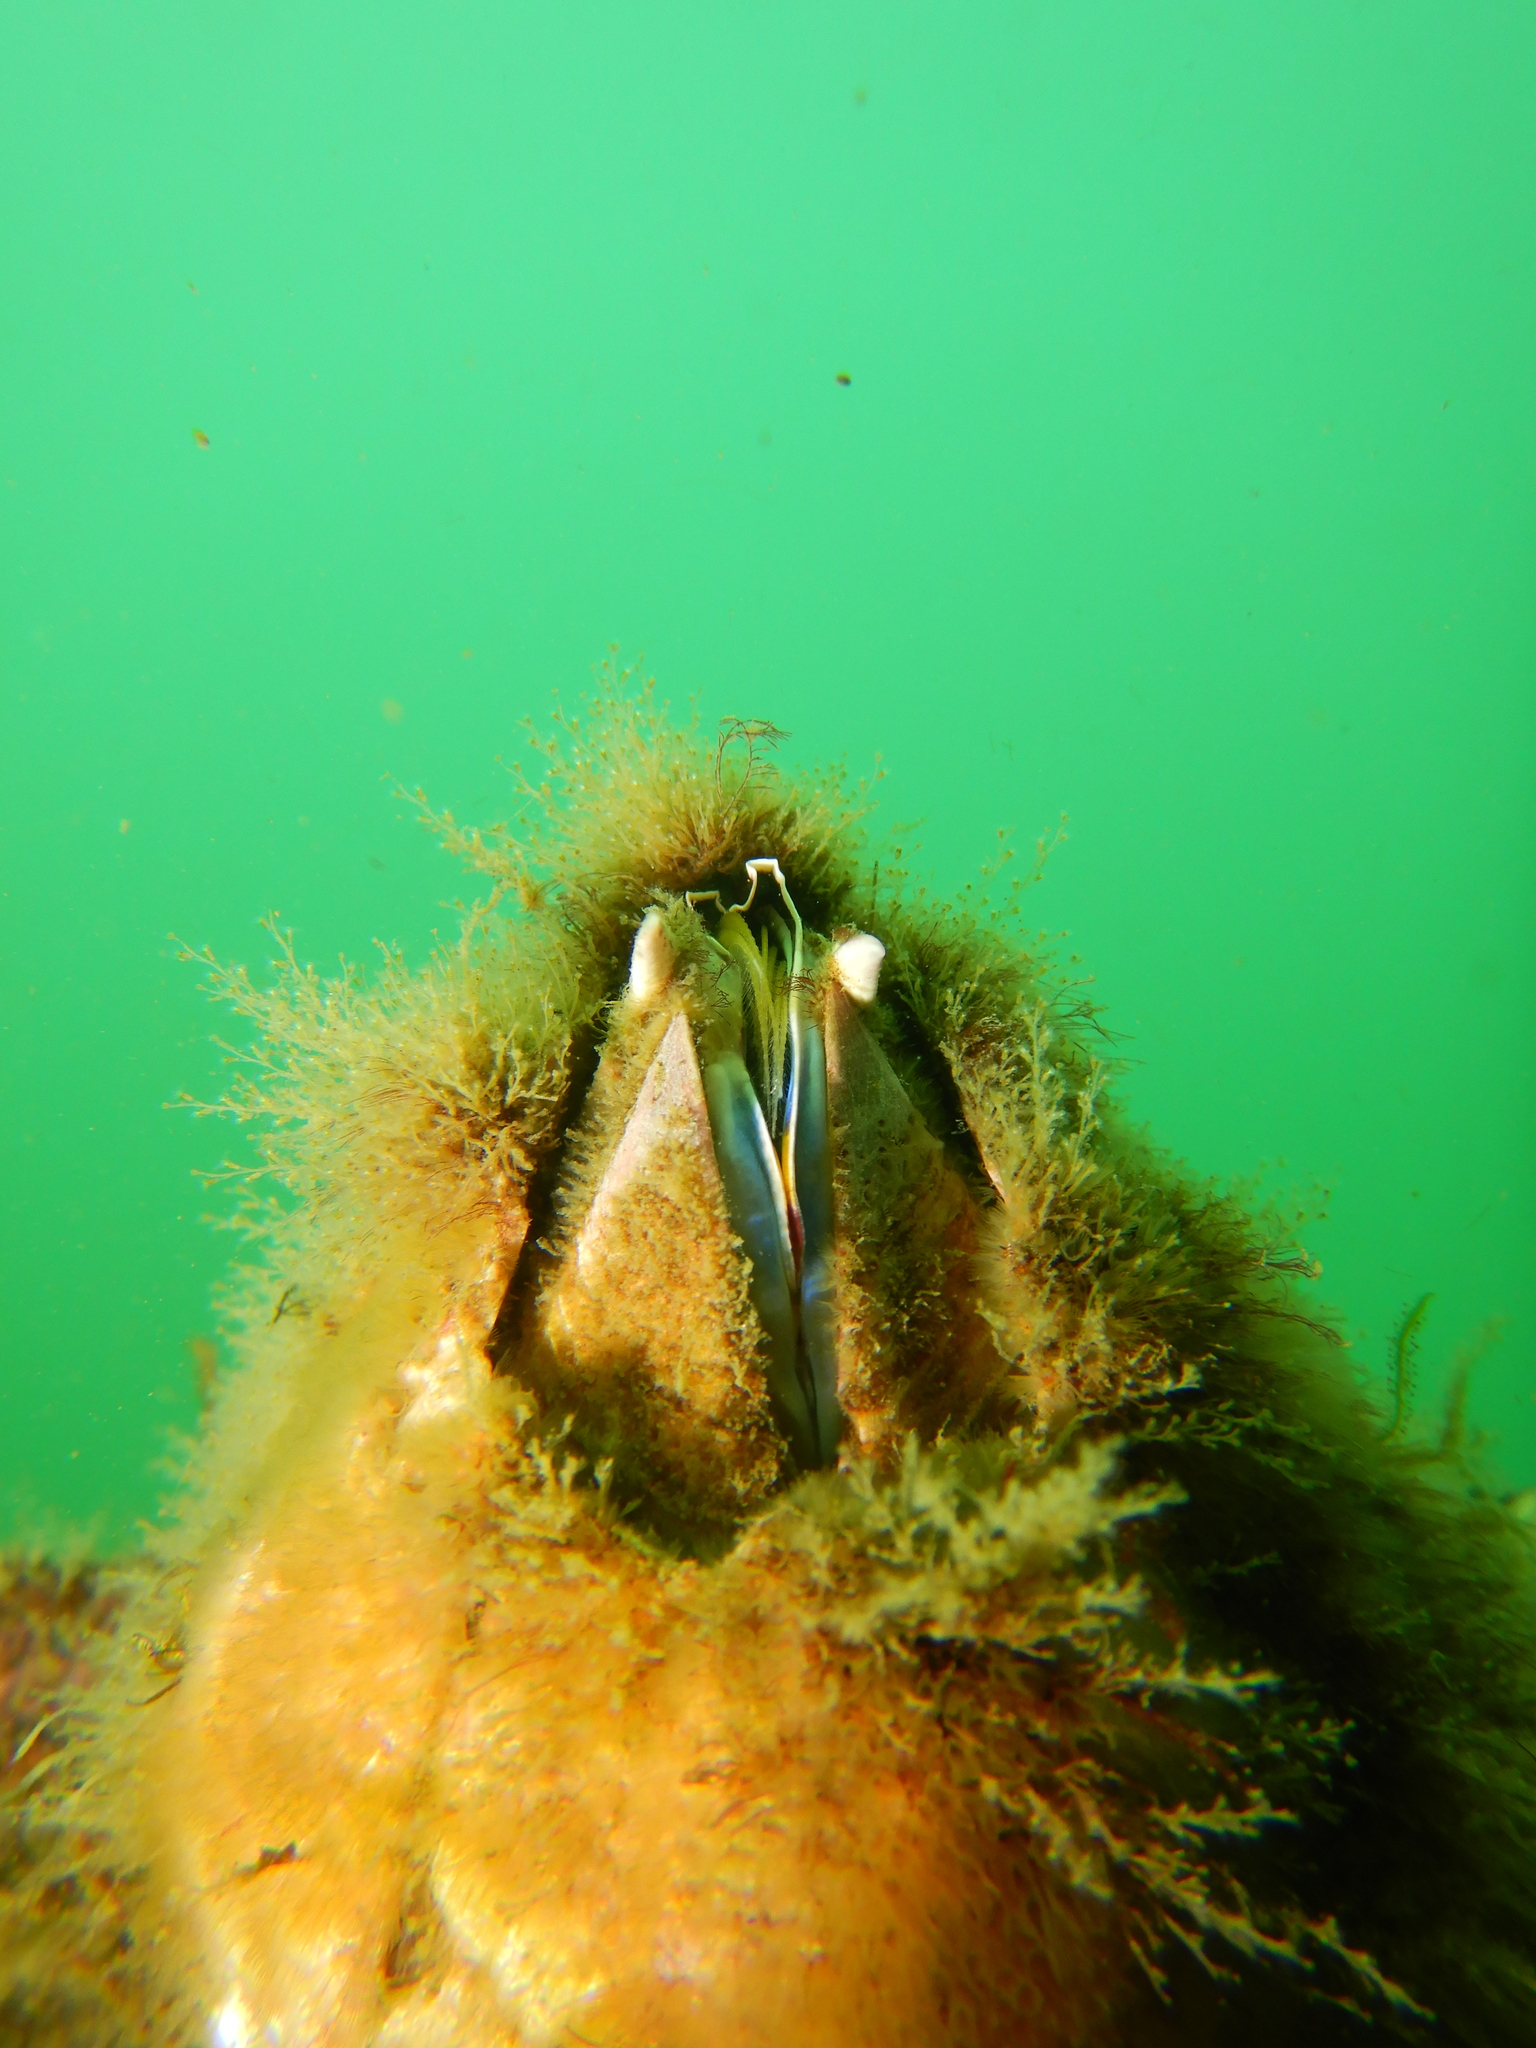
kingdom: Animalia
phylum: Arthropoda
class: Maxillopoda
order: Sessilia
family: Balanidae
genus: Austromegabalanus
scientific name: Austromegabalanus psittacus
